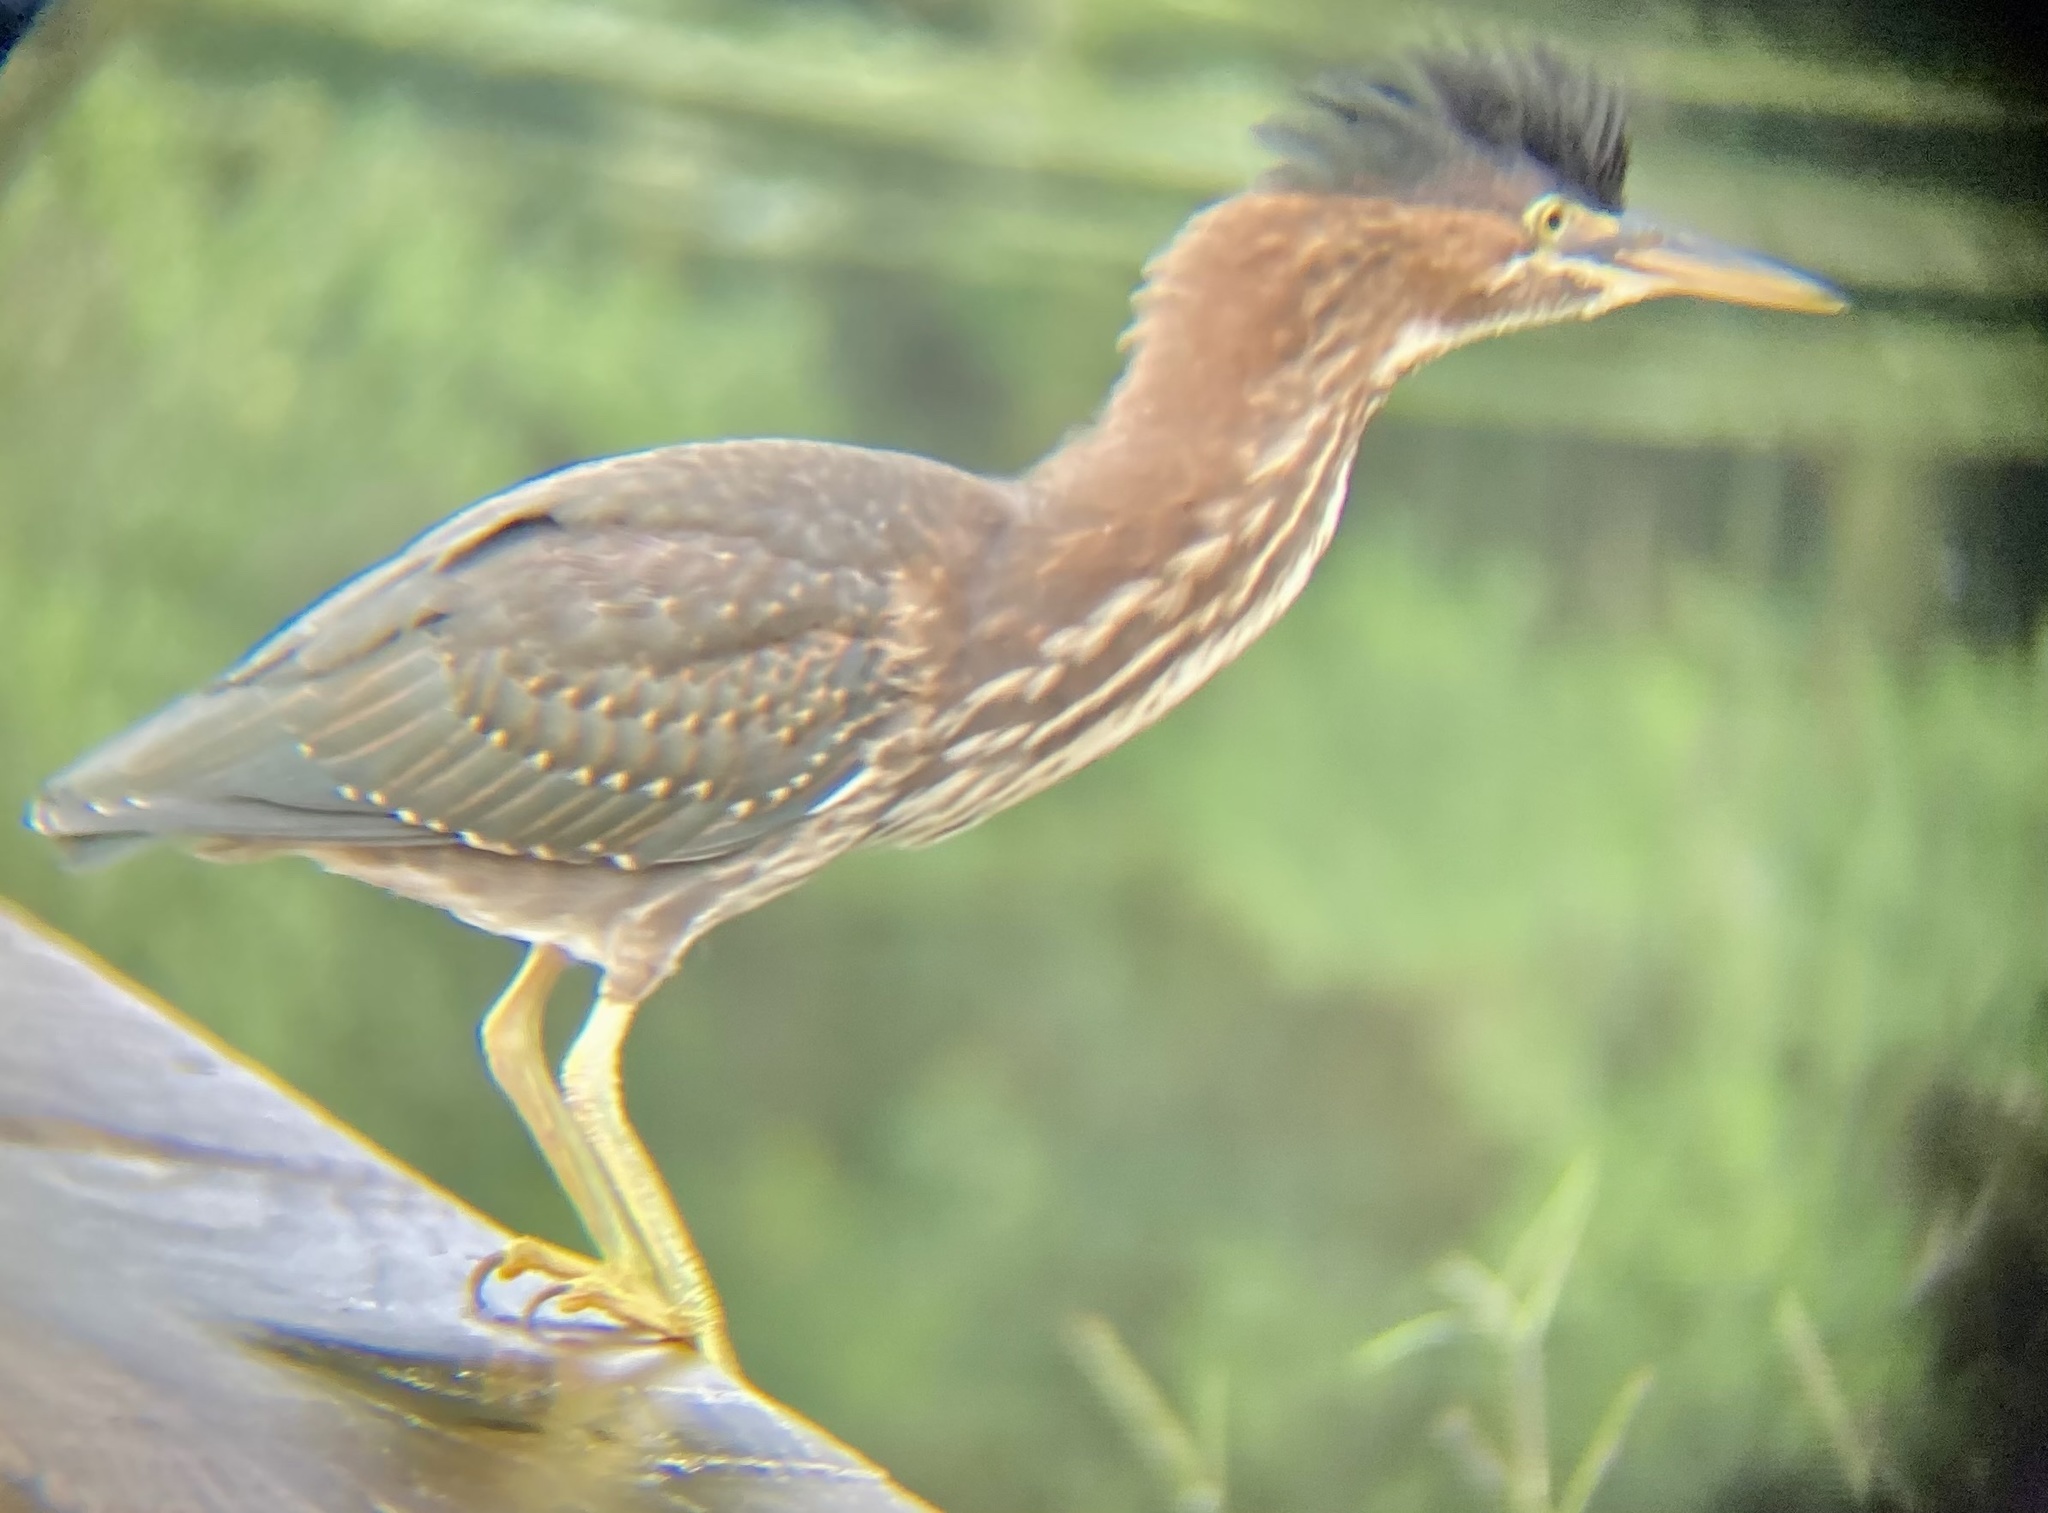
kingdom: Animalia
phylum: Chordata
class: Aves
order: Pelecaniformes
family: Ardeidae
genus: Butorides
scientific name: Butorides virescens
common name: Green heron
